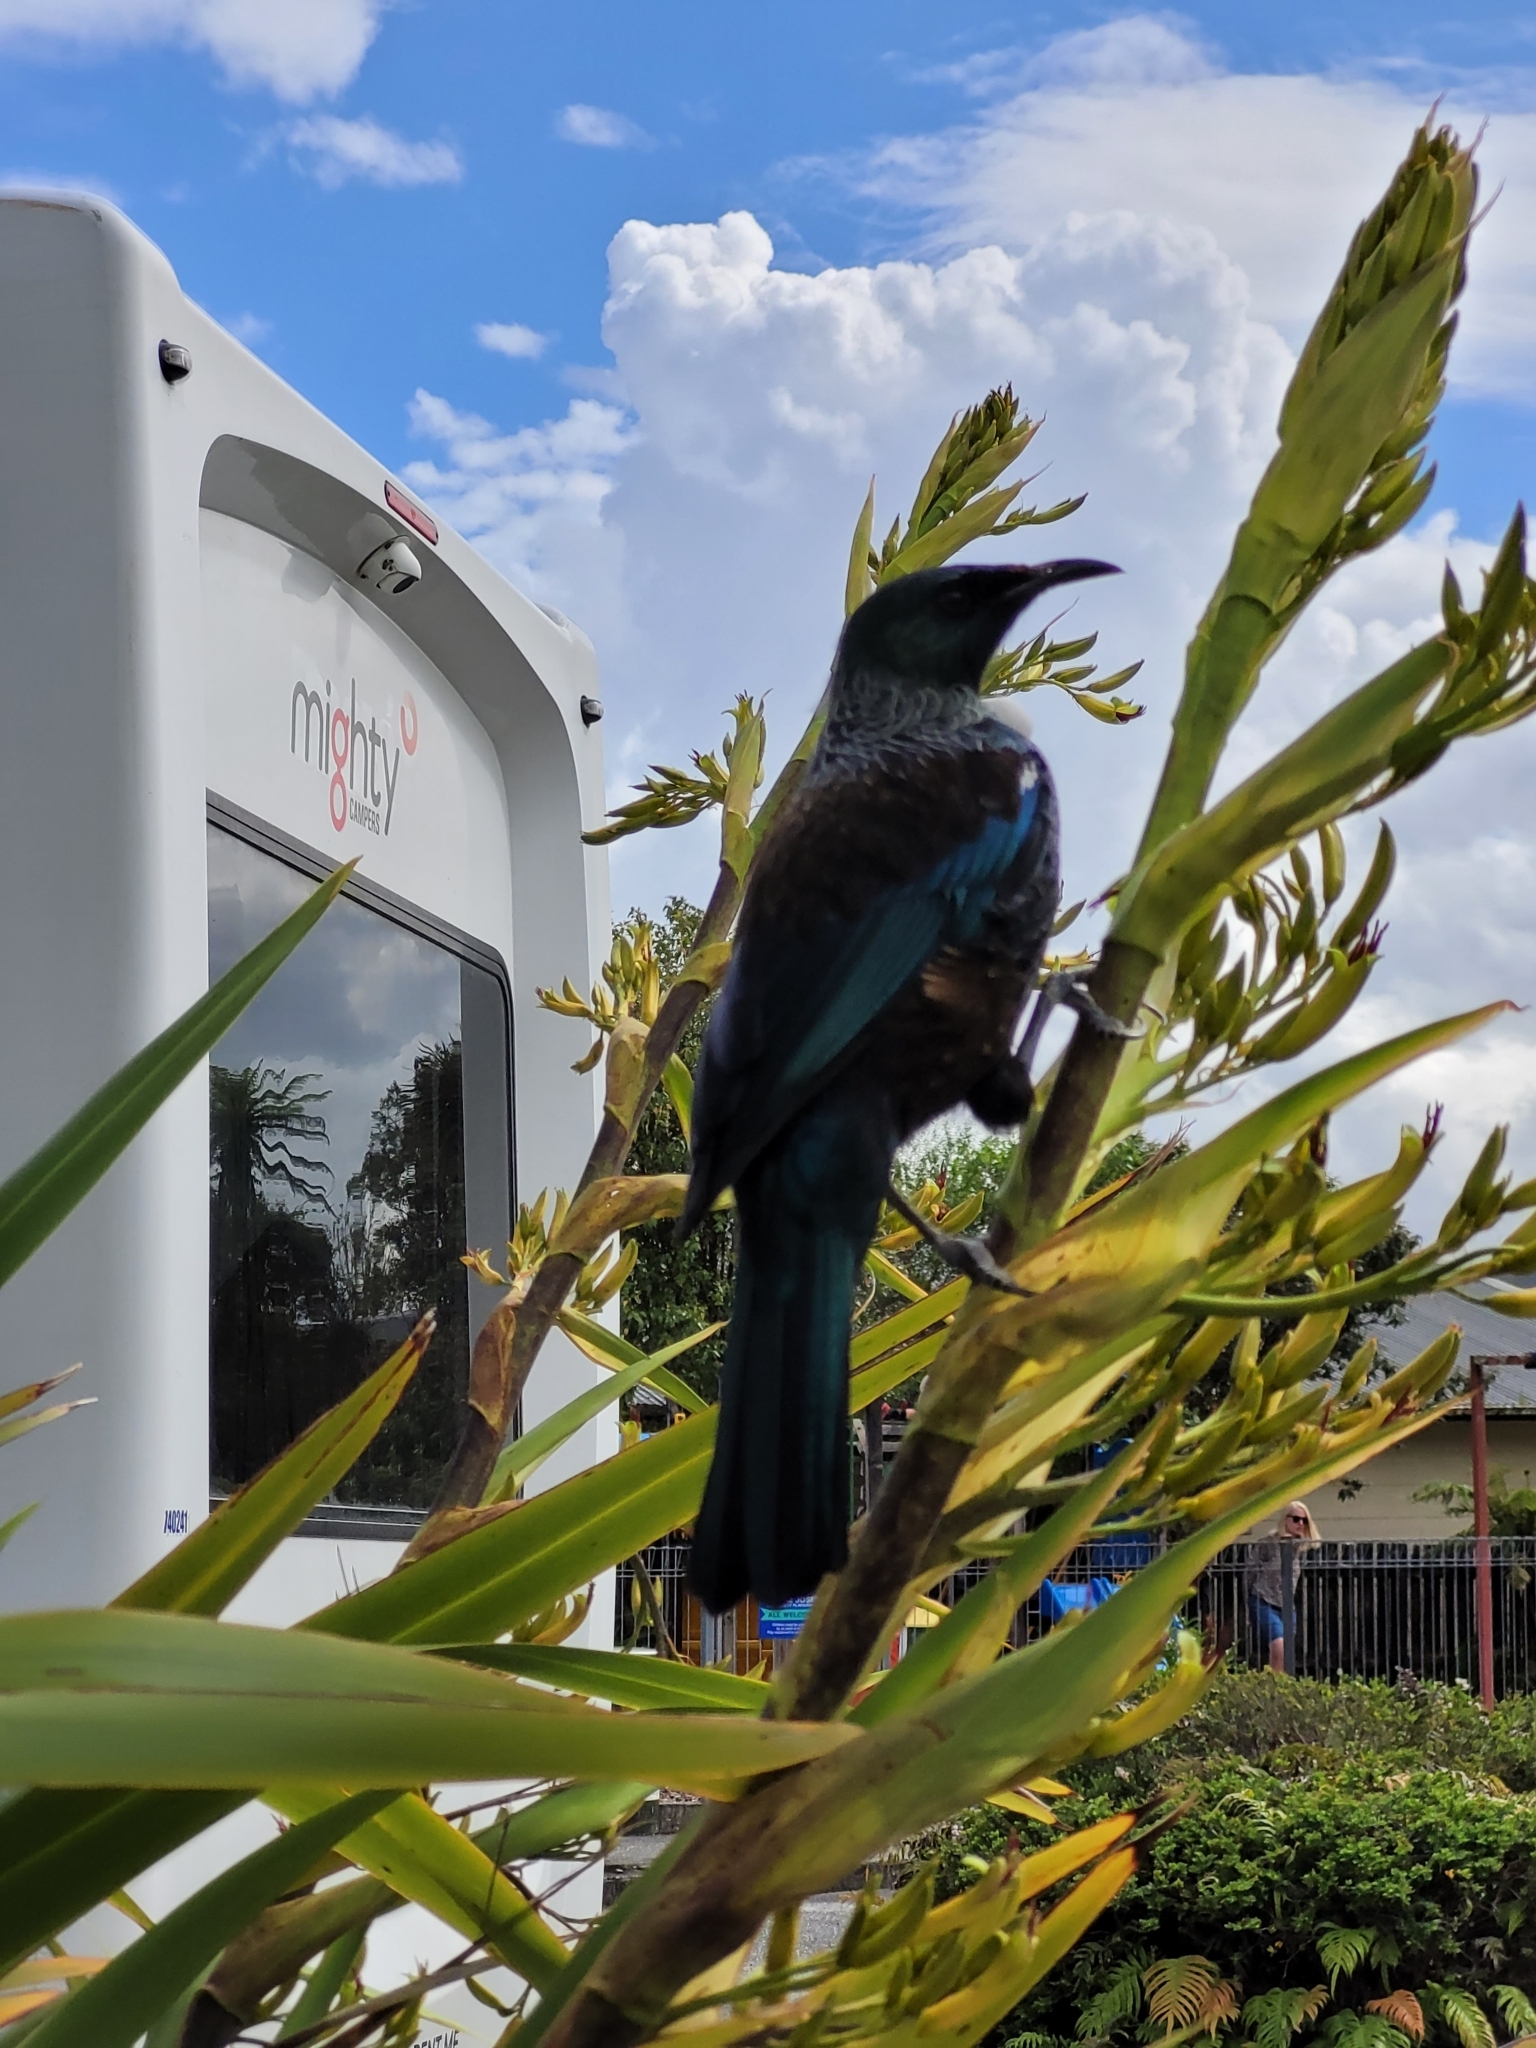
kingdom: Animalia
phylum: Chordata
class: Aves
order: Passeriformes
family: Meliphagidae
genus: Prosthemadera
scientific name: Prosthemadera novaeseelandiae
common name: Tui
